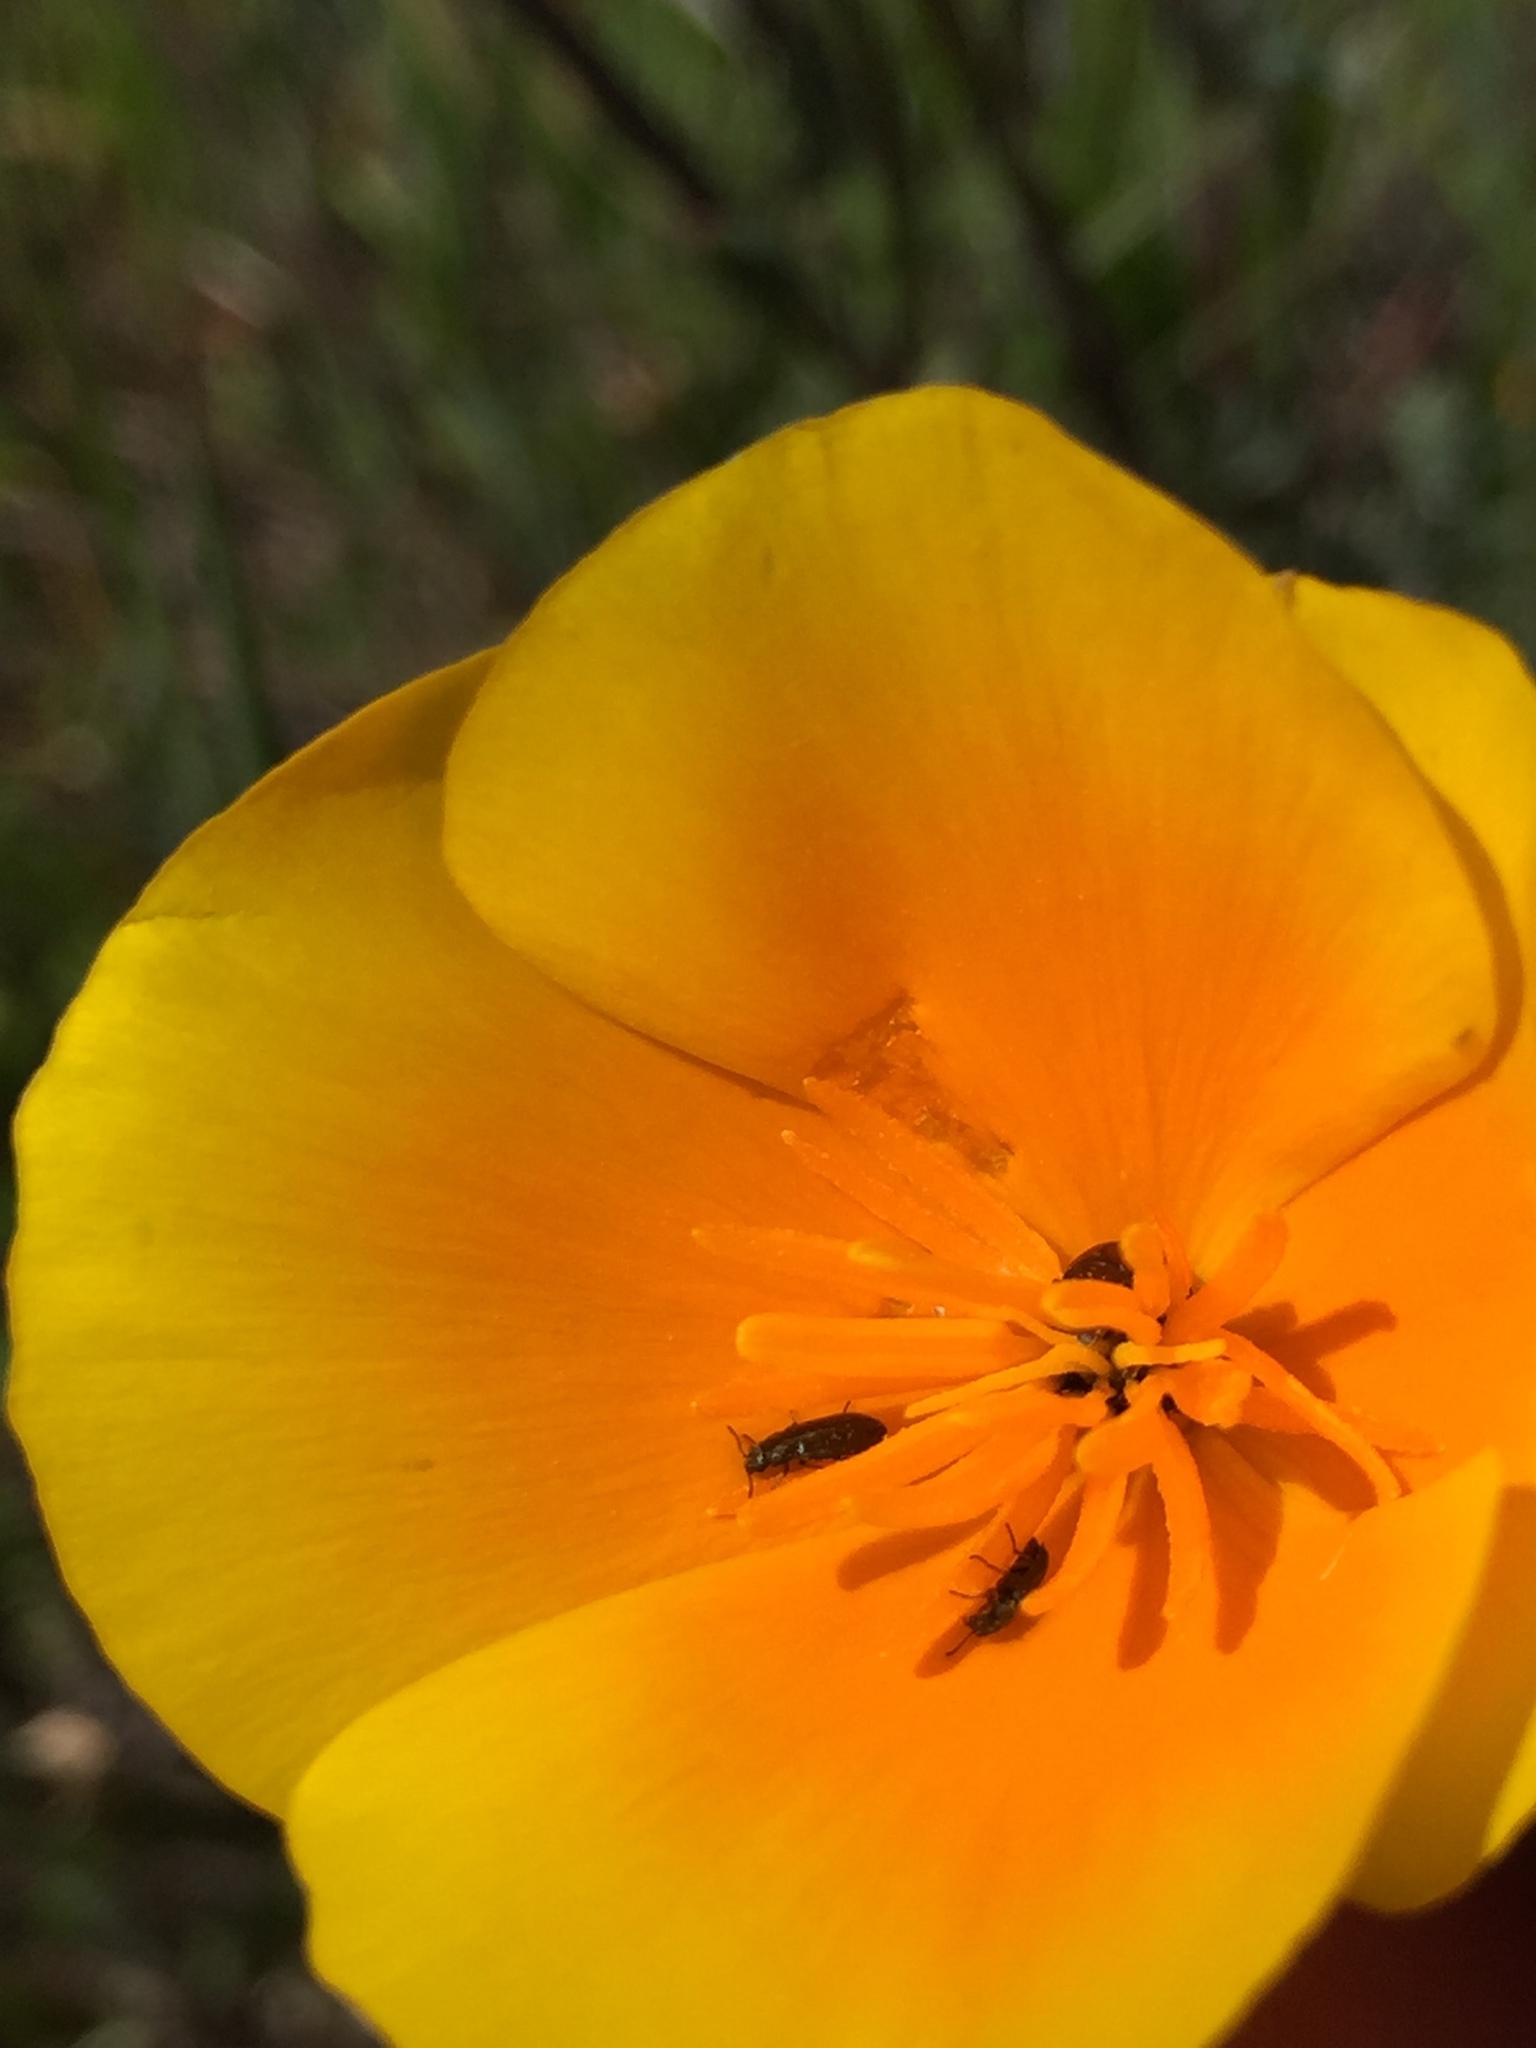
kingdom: Plantae
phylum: Tracheophyta
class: Magnoliopsida
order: Ranunculales
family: Papaveraceae
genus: Eschscholzia
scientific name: Eschscholzia californica
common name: California poppy
